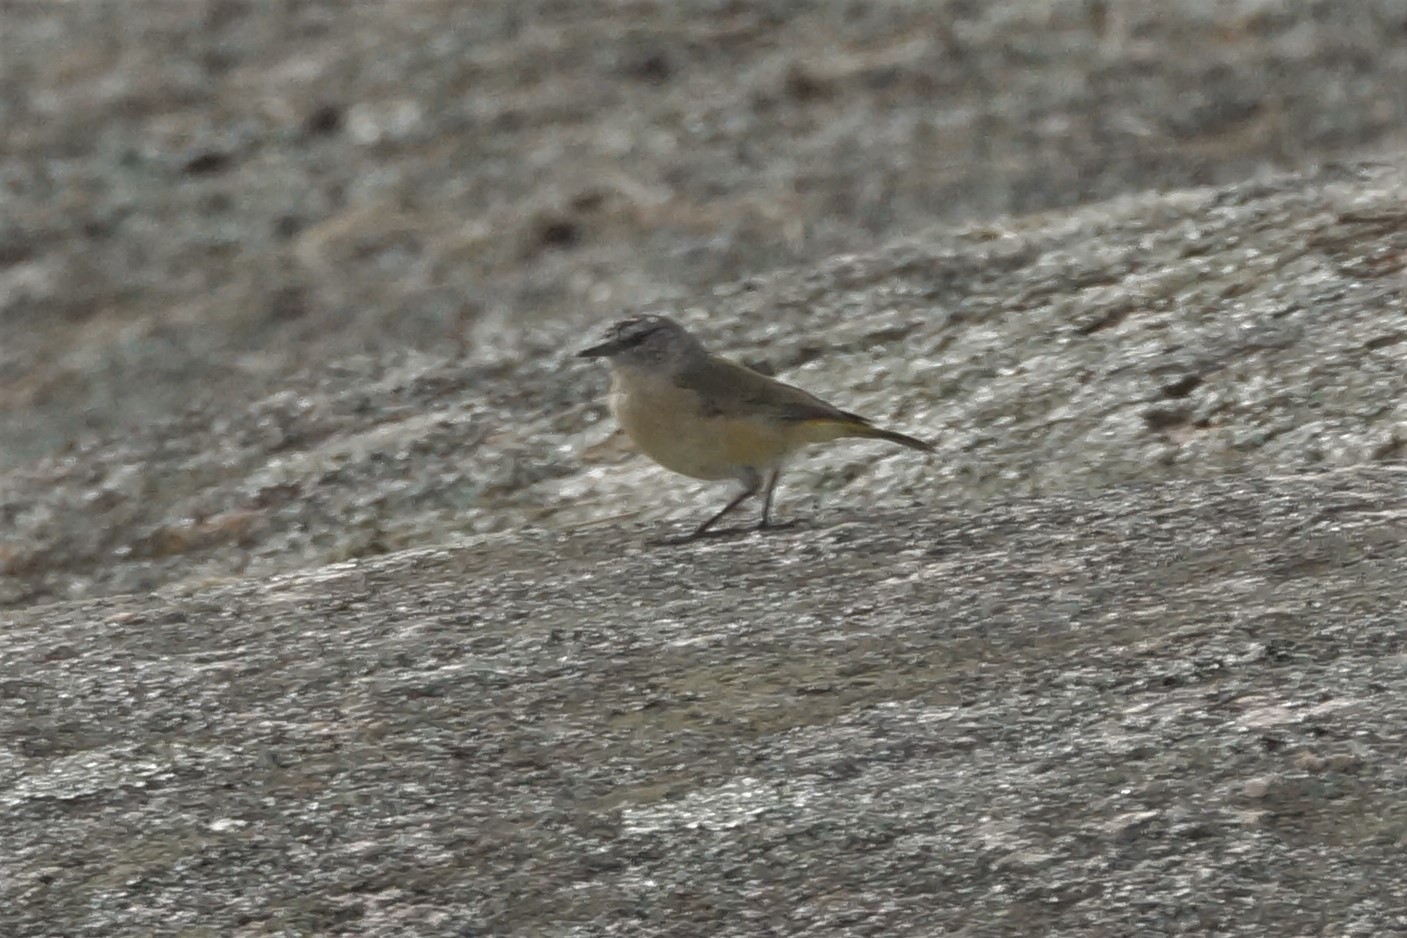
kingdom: Animalia
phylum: Chordata
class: Aves
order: Passeriformes
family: Acanthizidae
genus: Acanthiza
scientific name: Acanthiza chrysorrhoa
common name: Yellow-rumped thornbill
